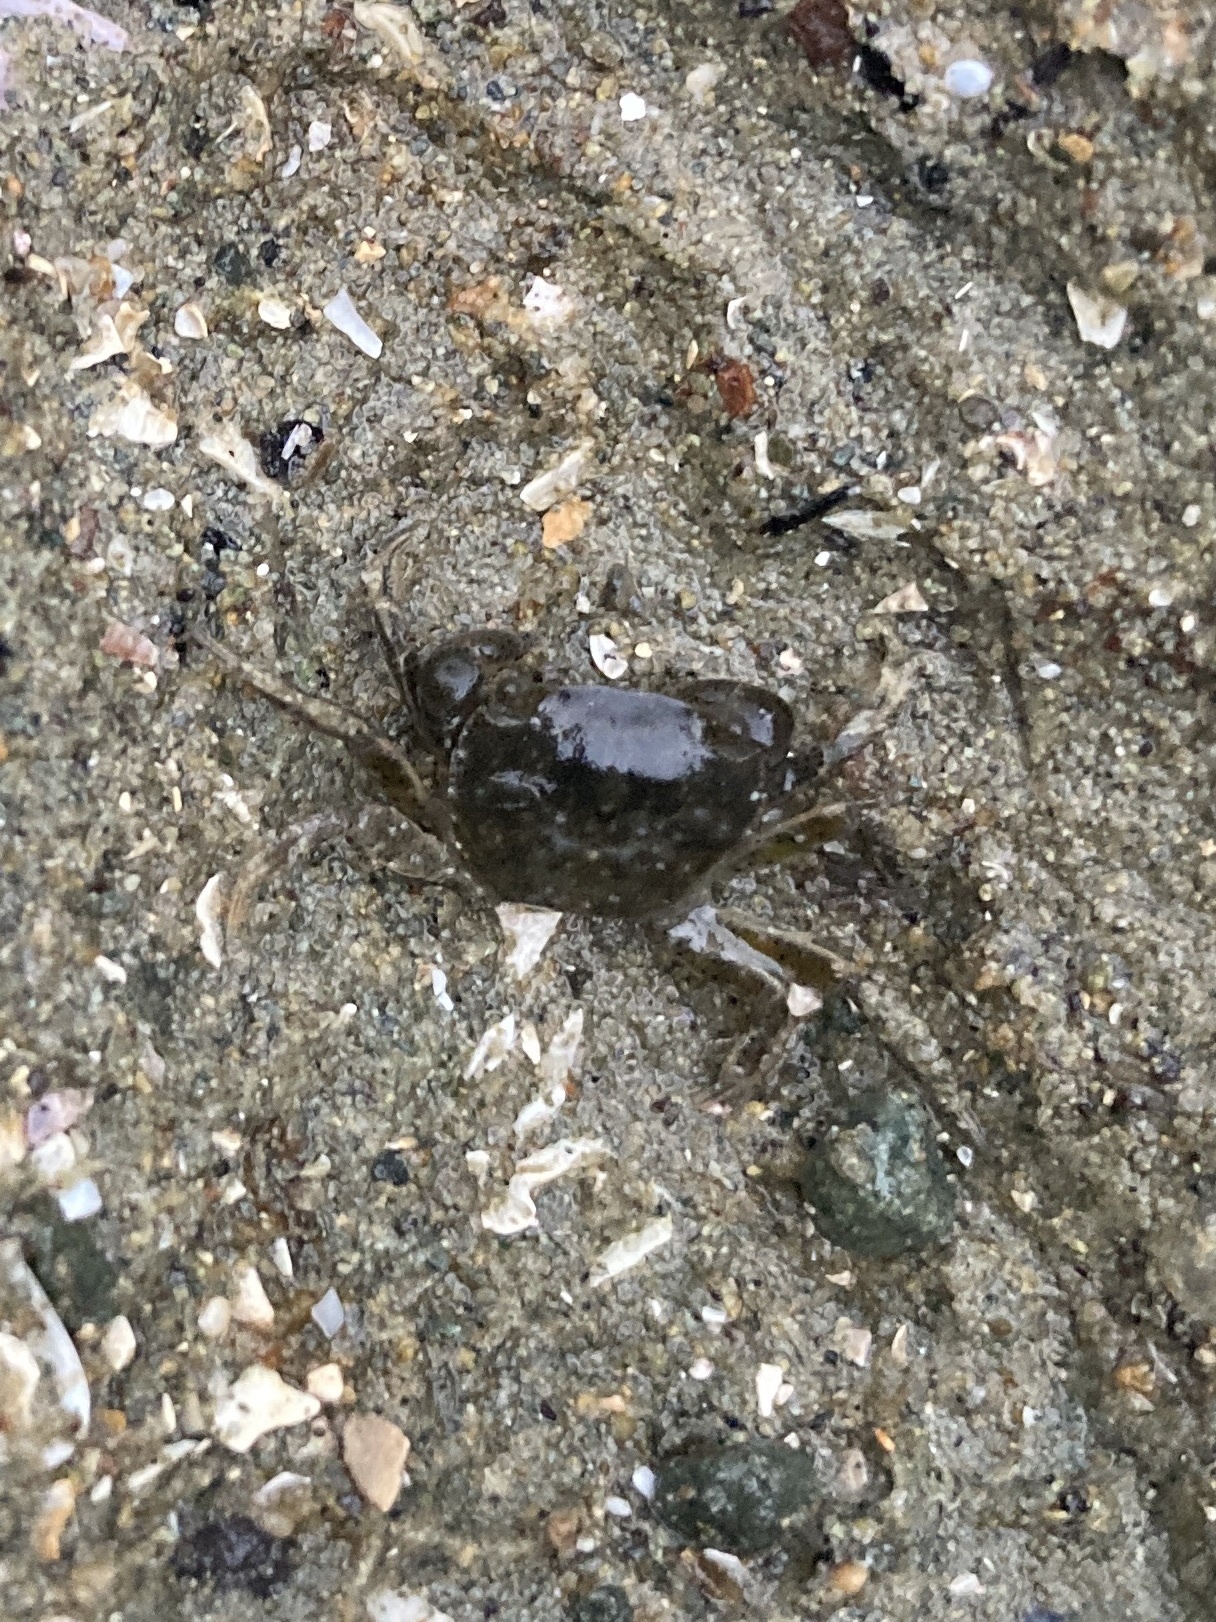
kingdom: Animalia
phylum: Arthropoda
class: Malacostraca
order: Decapoda
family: Varunidae
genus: Hemigrapsus
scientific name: Hemigrapsus crenulatus
